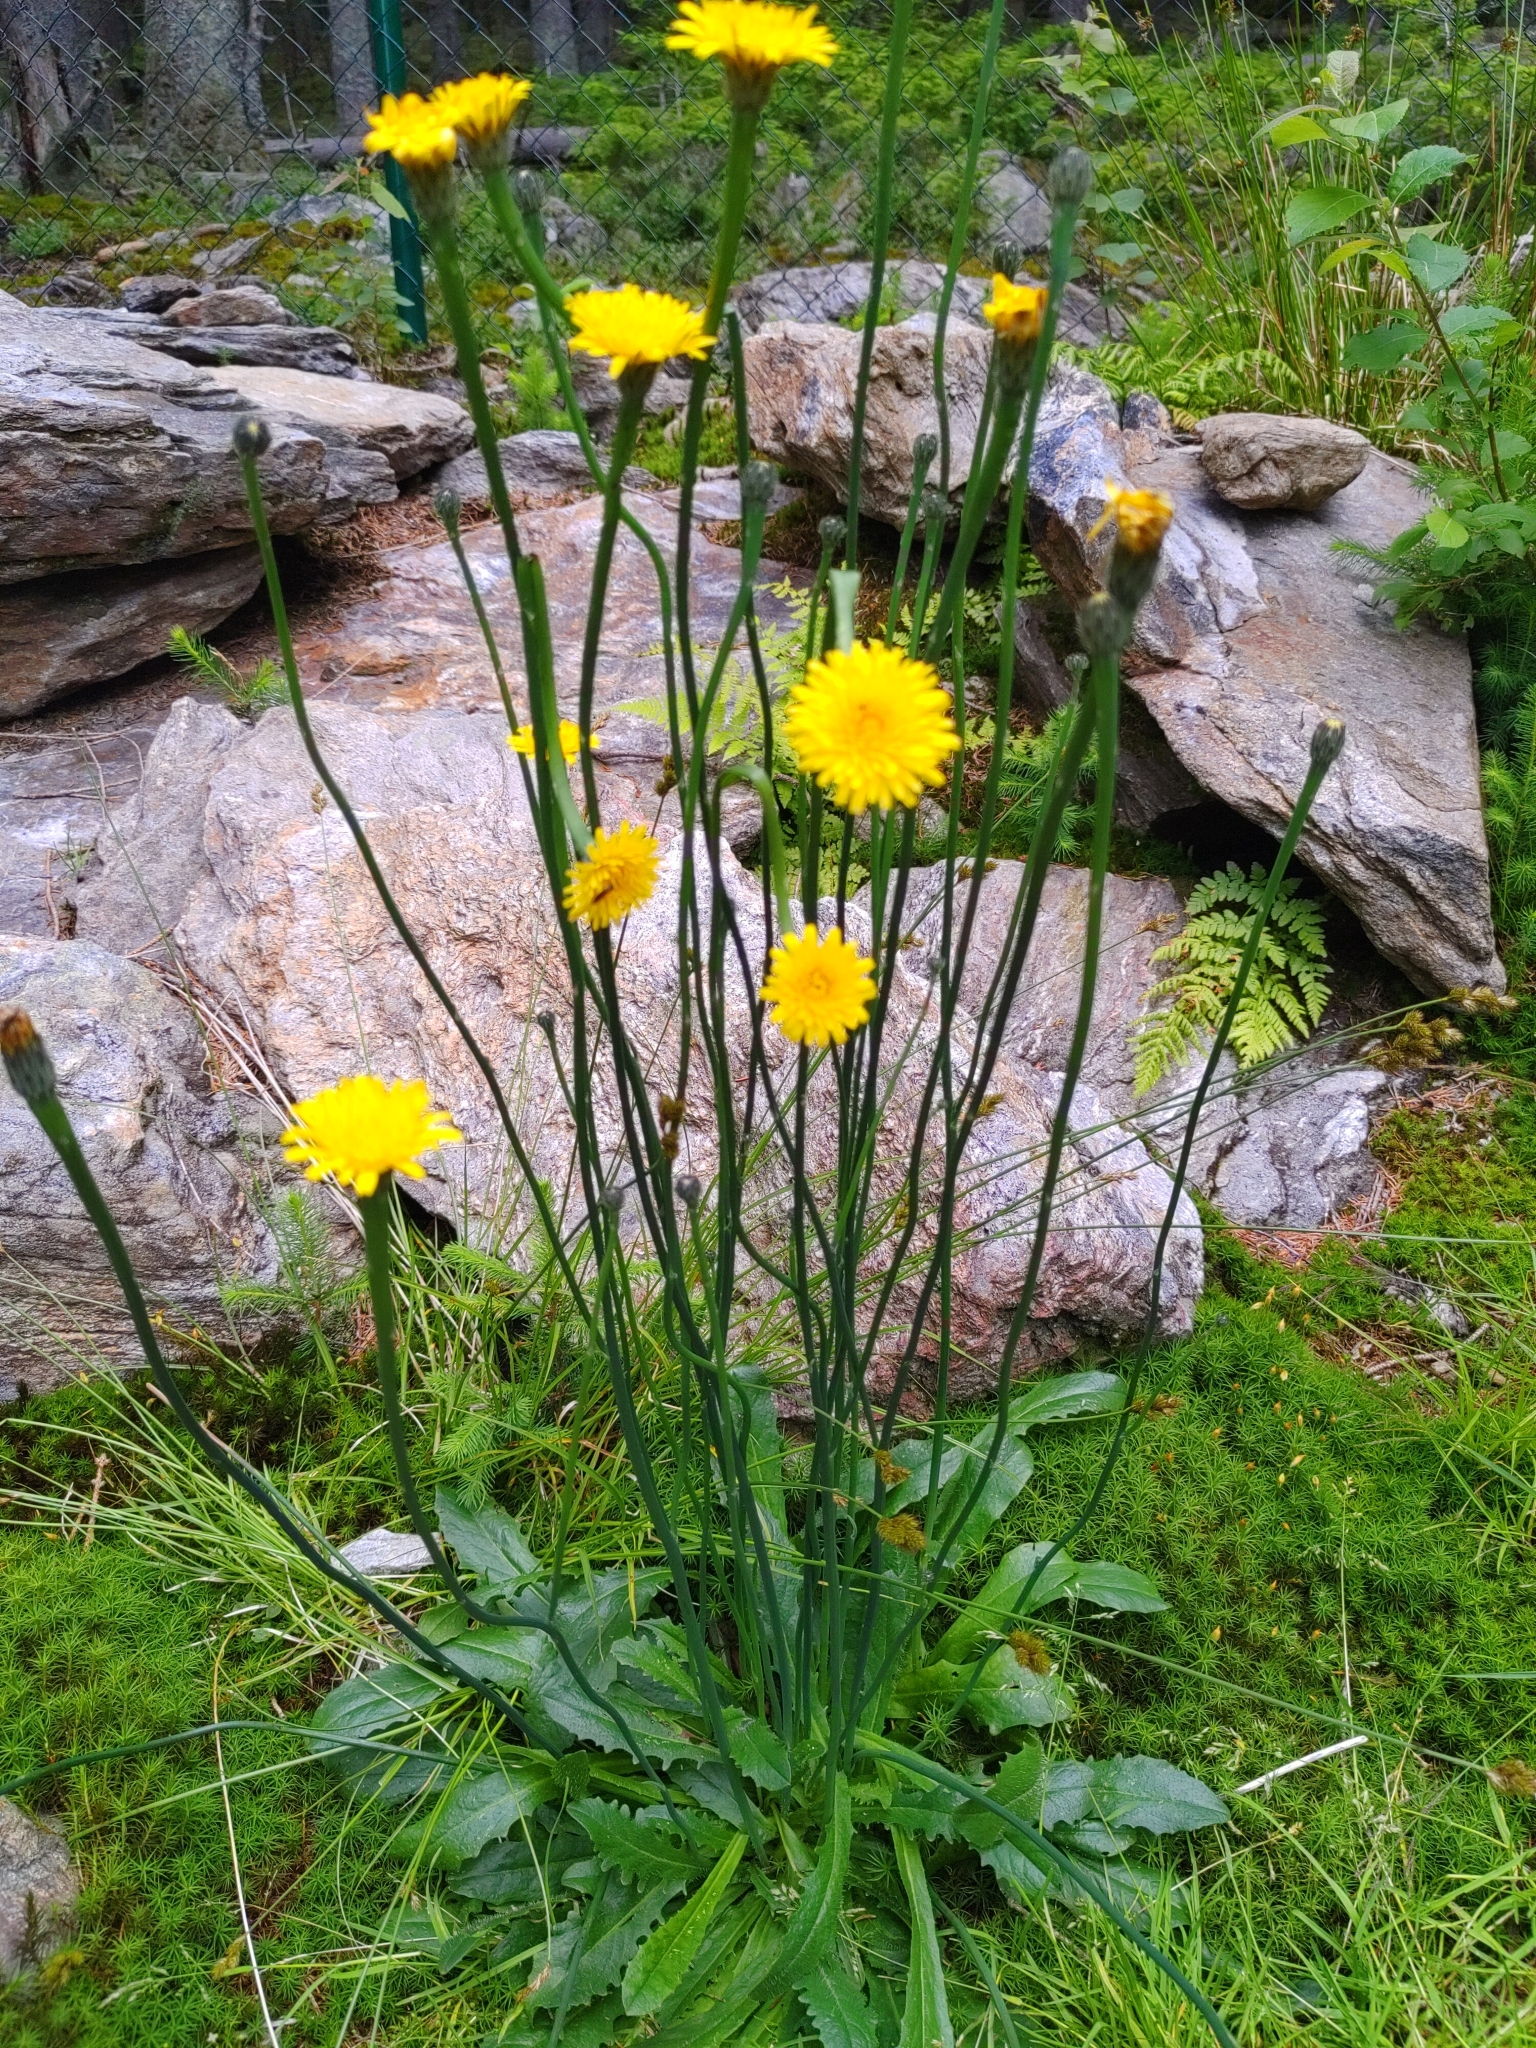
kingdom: Plantae
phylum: Tracheophyta
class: Magnoliopsida
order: Asterales
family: Asteraceae
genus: Hypochaeris
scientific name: Hypochaeris radicata
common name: Flatweed
